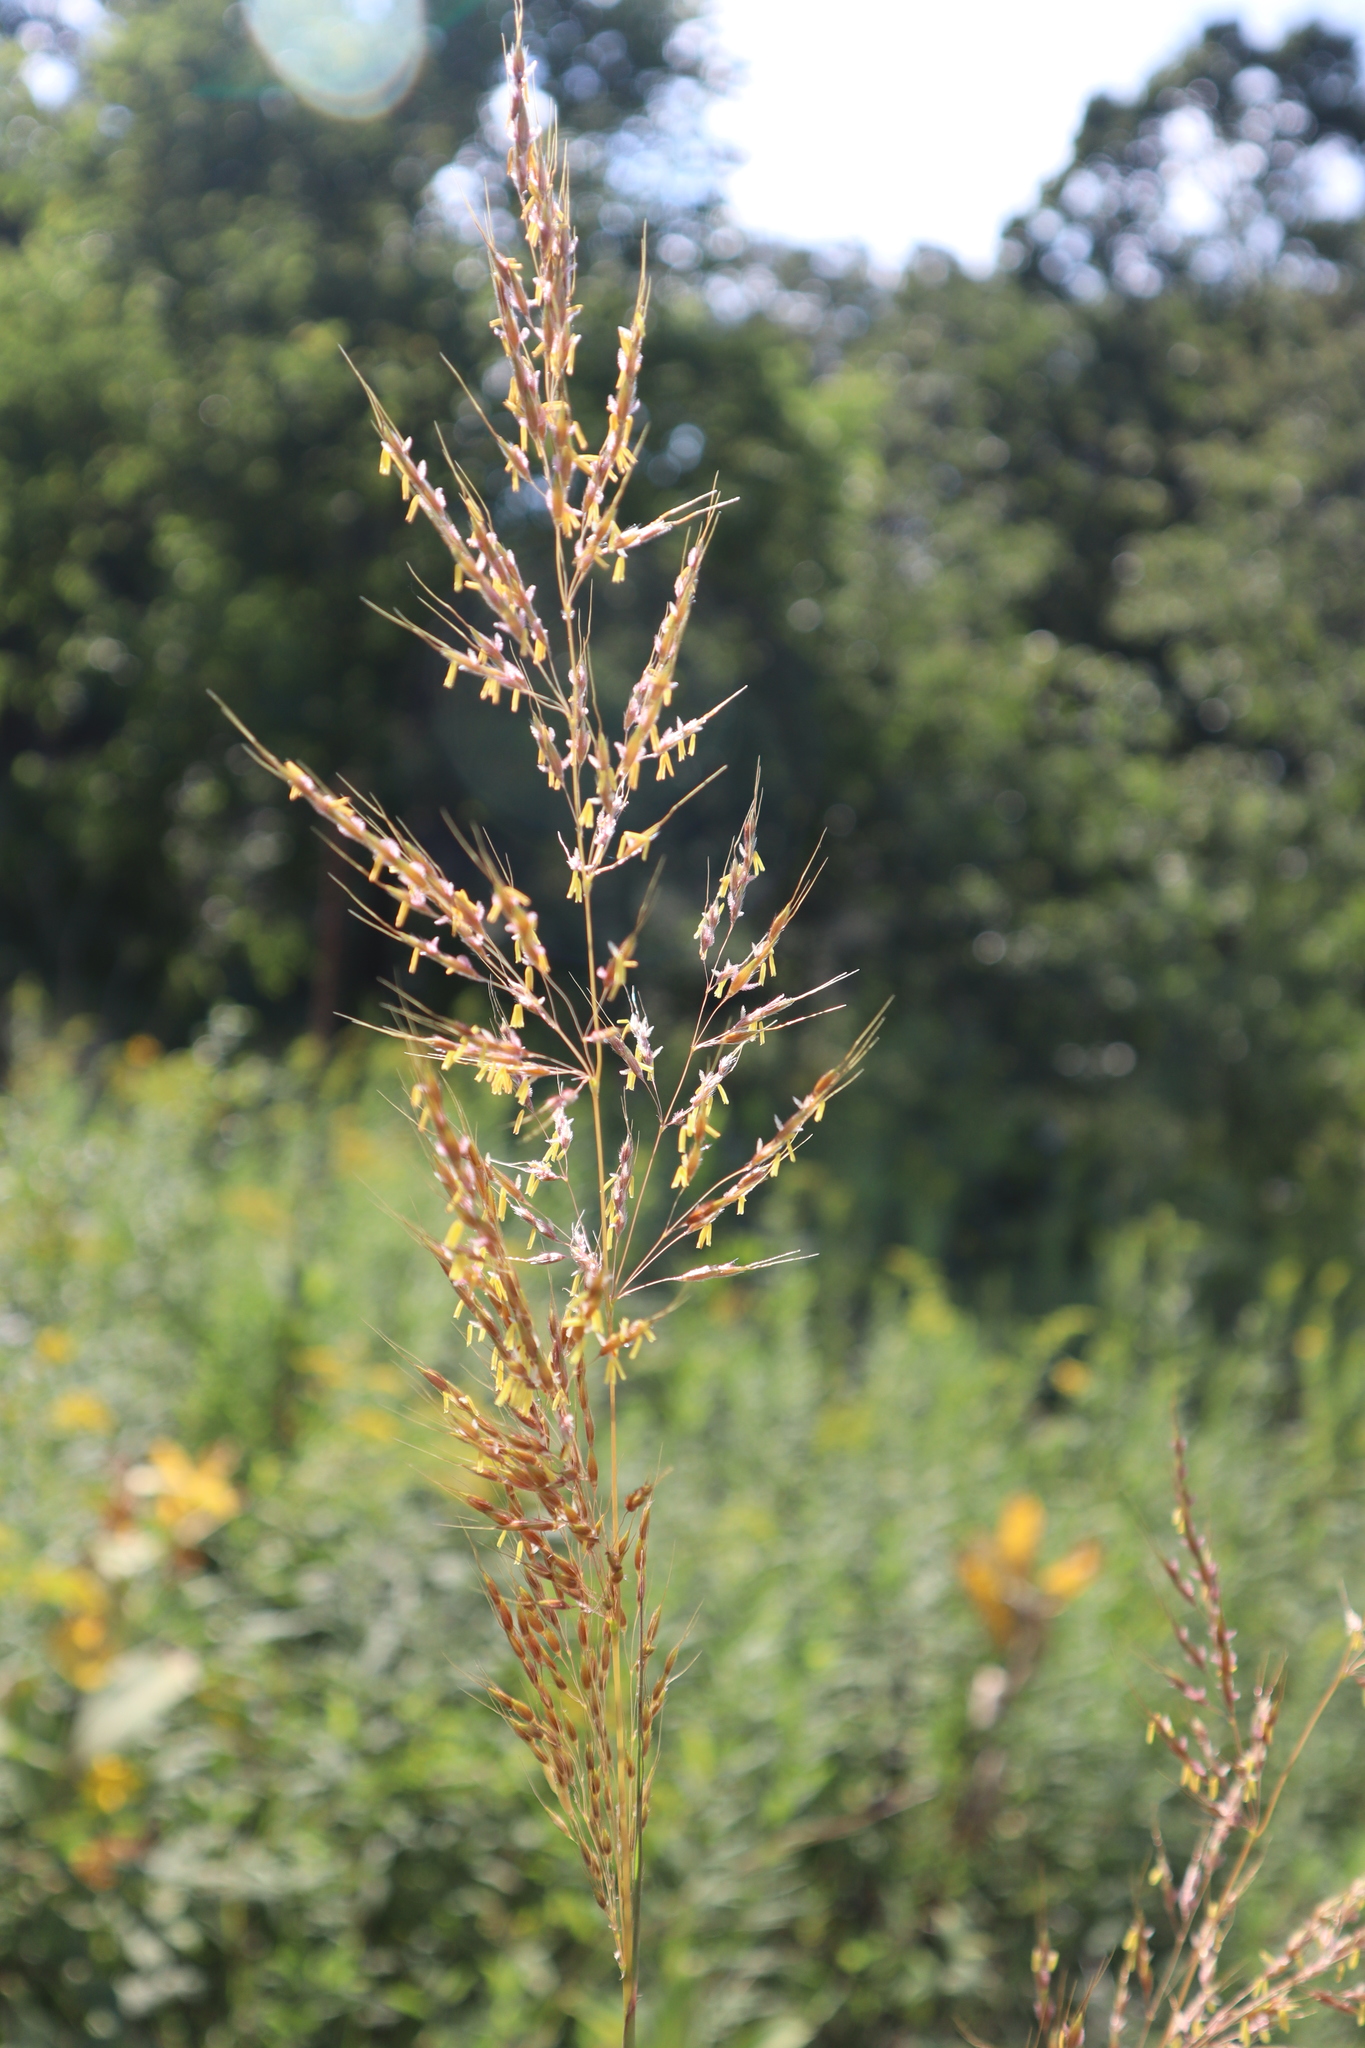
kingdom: Plantae
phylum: Tracheophyta
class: Liliopsida
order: Poales
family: Poaceae
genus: Sorghastrum
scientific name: Sorghastrum nutans
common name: Indian grass
